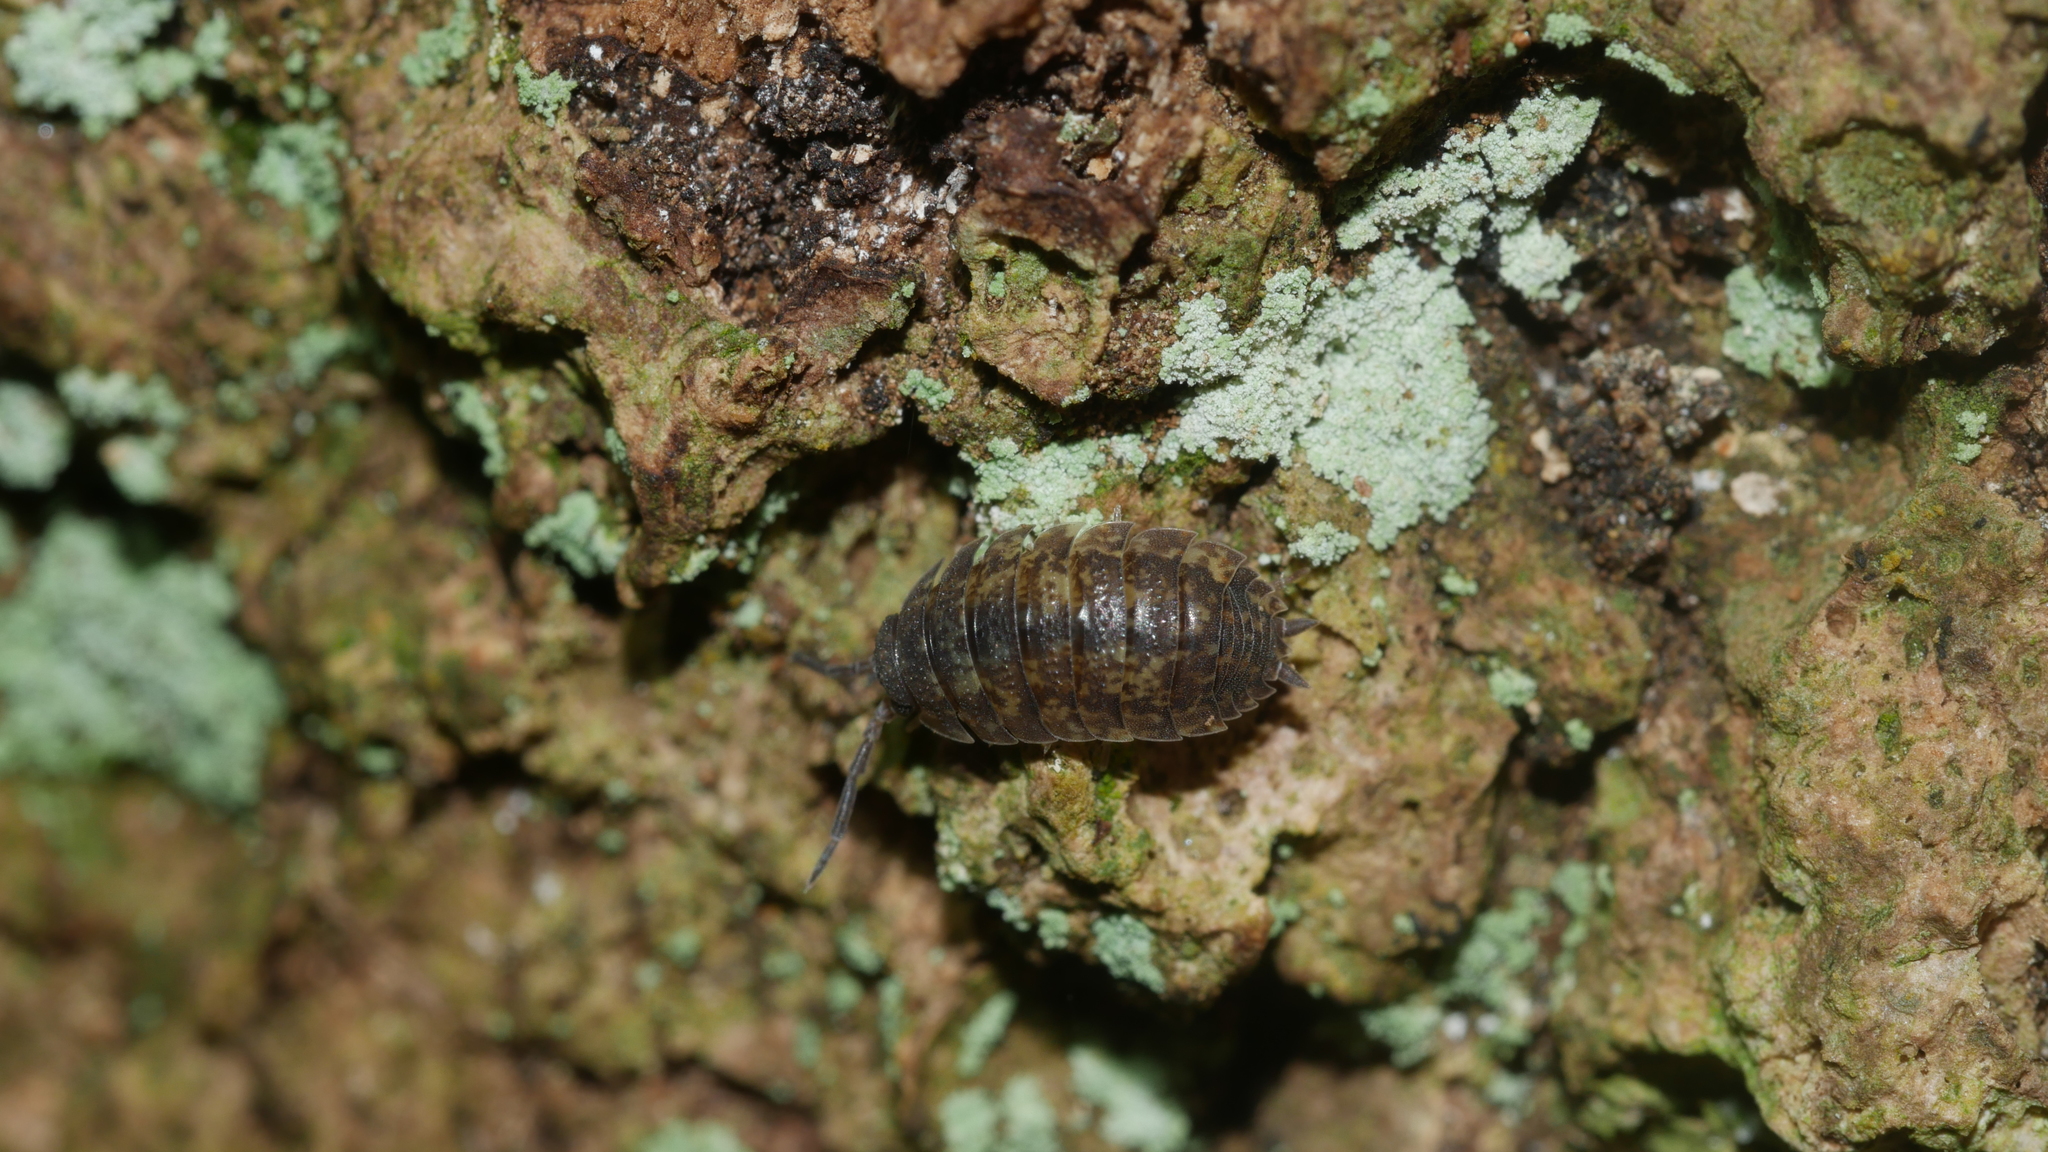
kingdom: Animalia
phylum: Arthropoda
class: Malacostraca
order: Isopoda
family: Porcellionidae
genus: Porcellio
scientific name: Porcellio scaber
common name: Common rough woodlouse
